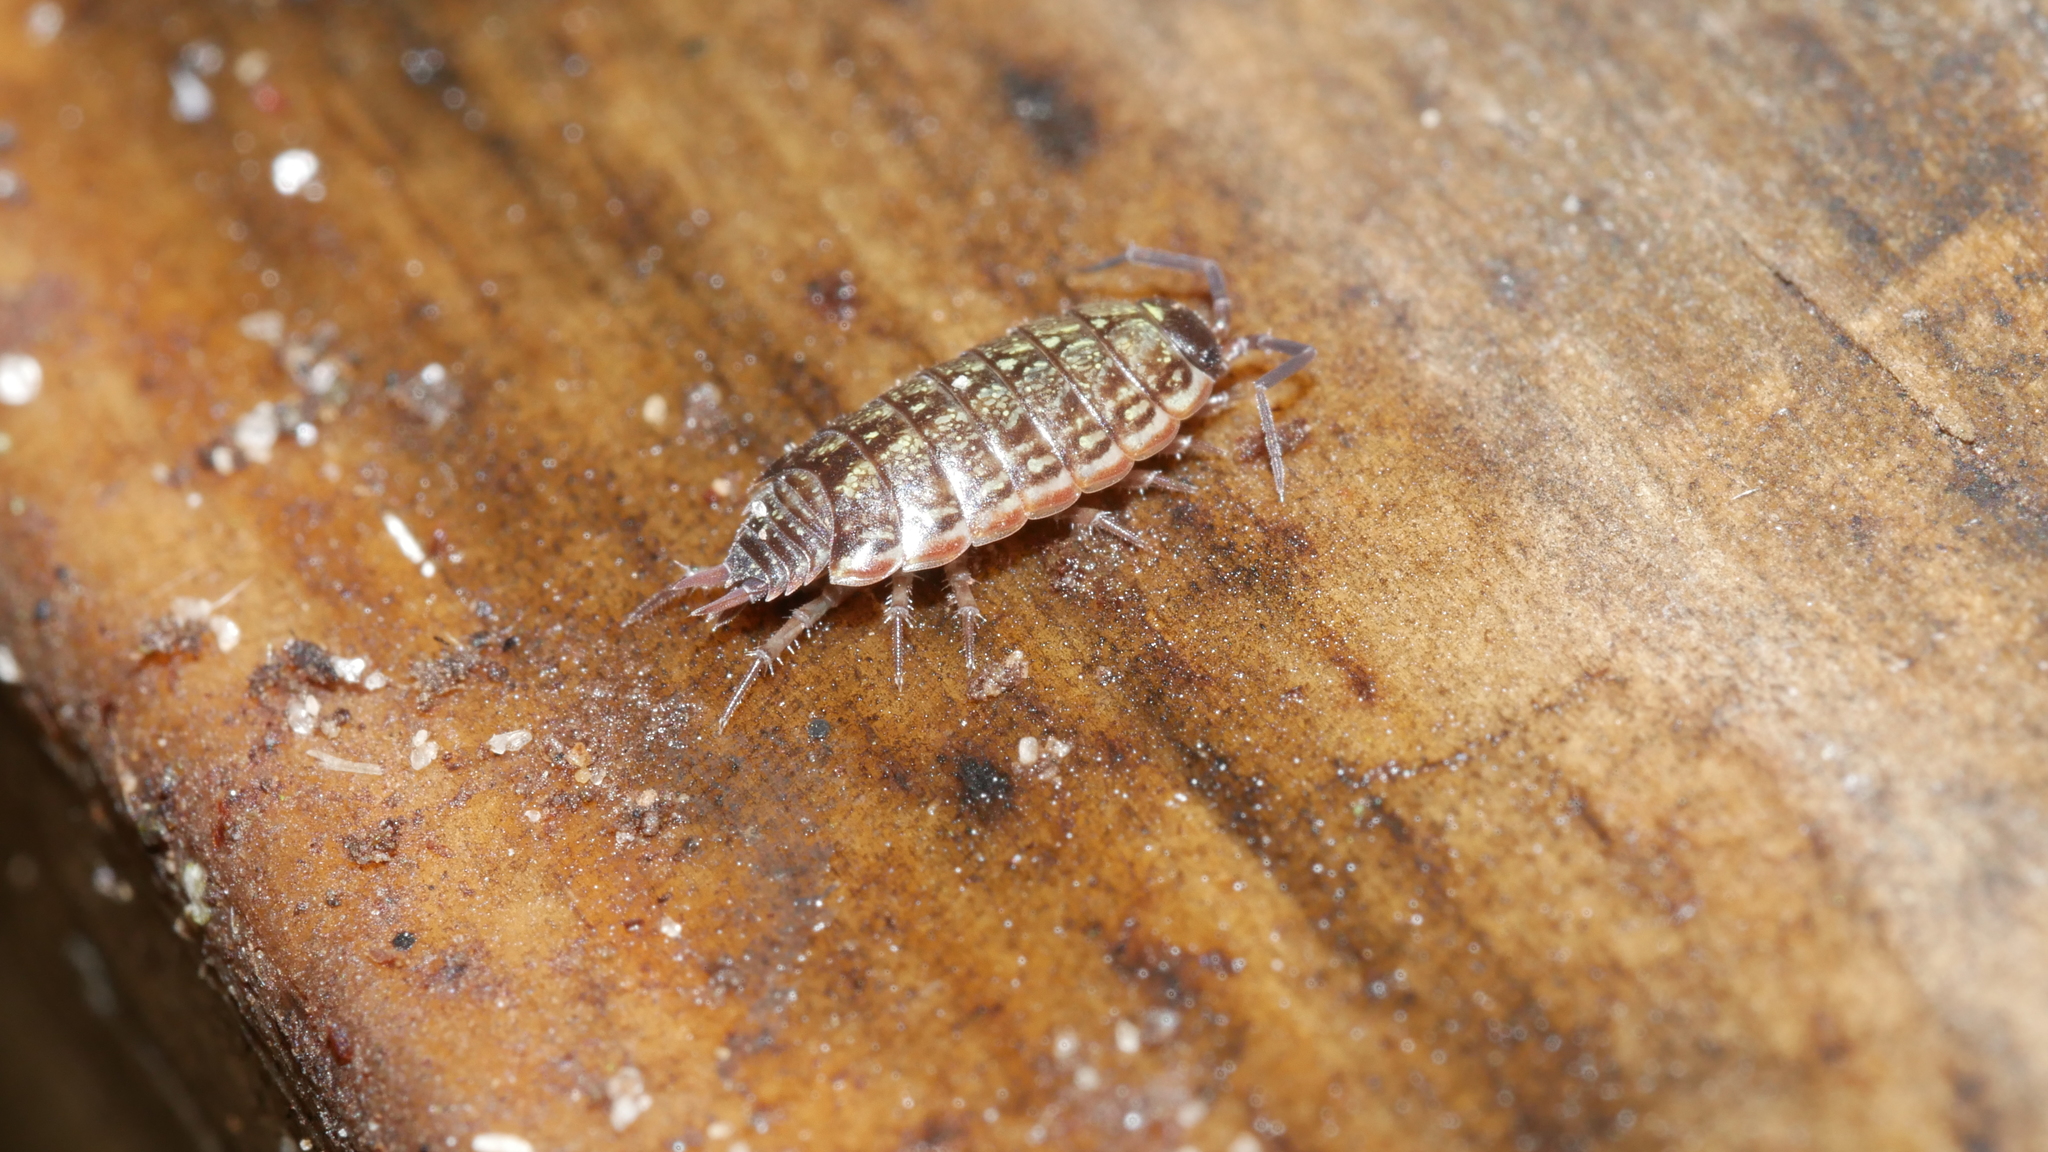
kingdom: Animalia
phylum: Arthropoda
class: Malacostraca
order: Isopoda
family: Philosciidae
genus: Philoscia
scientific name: Philoscia muscorum
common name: Common striped woodlouse
